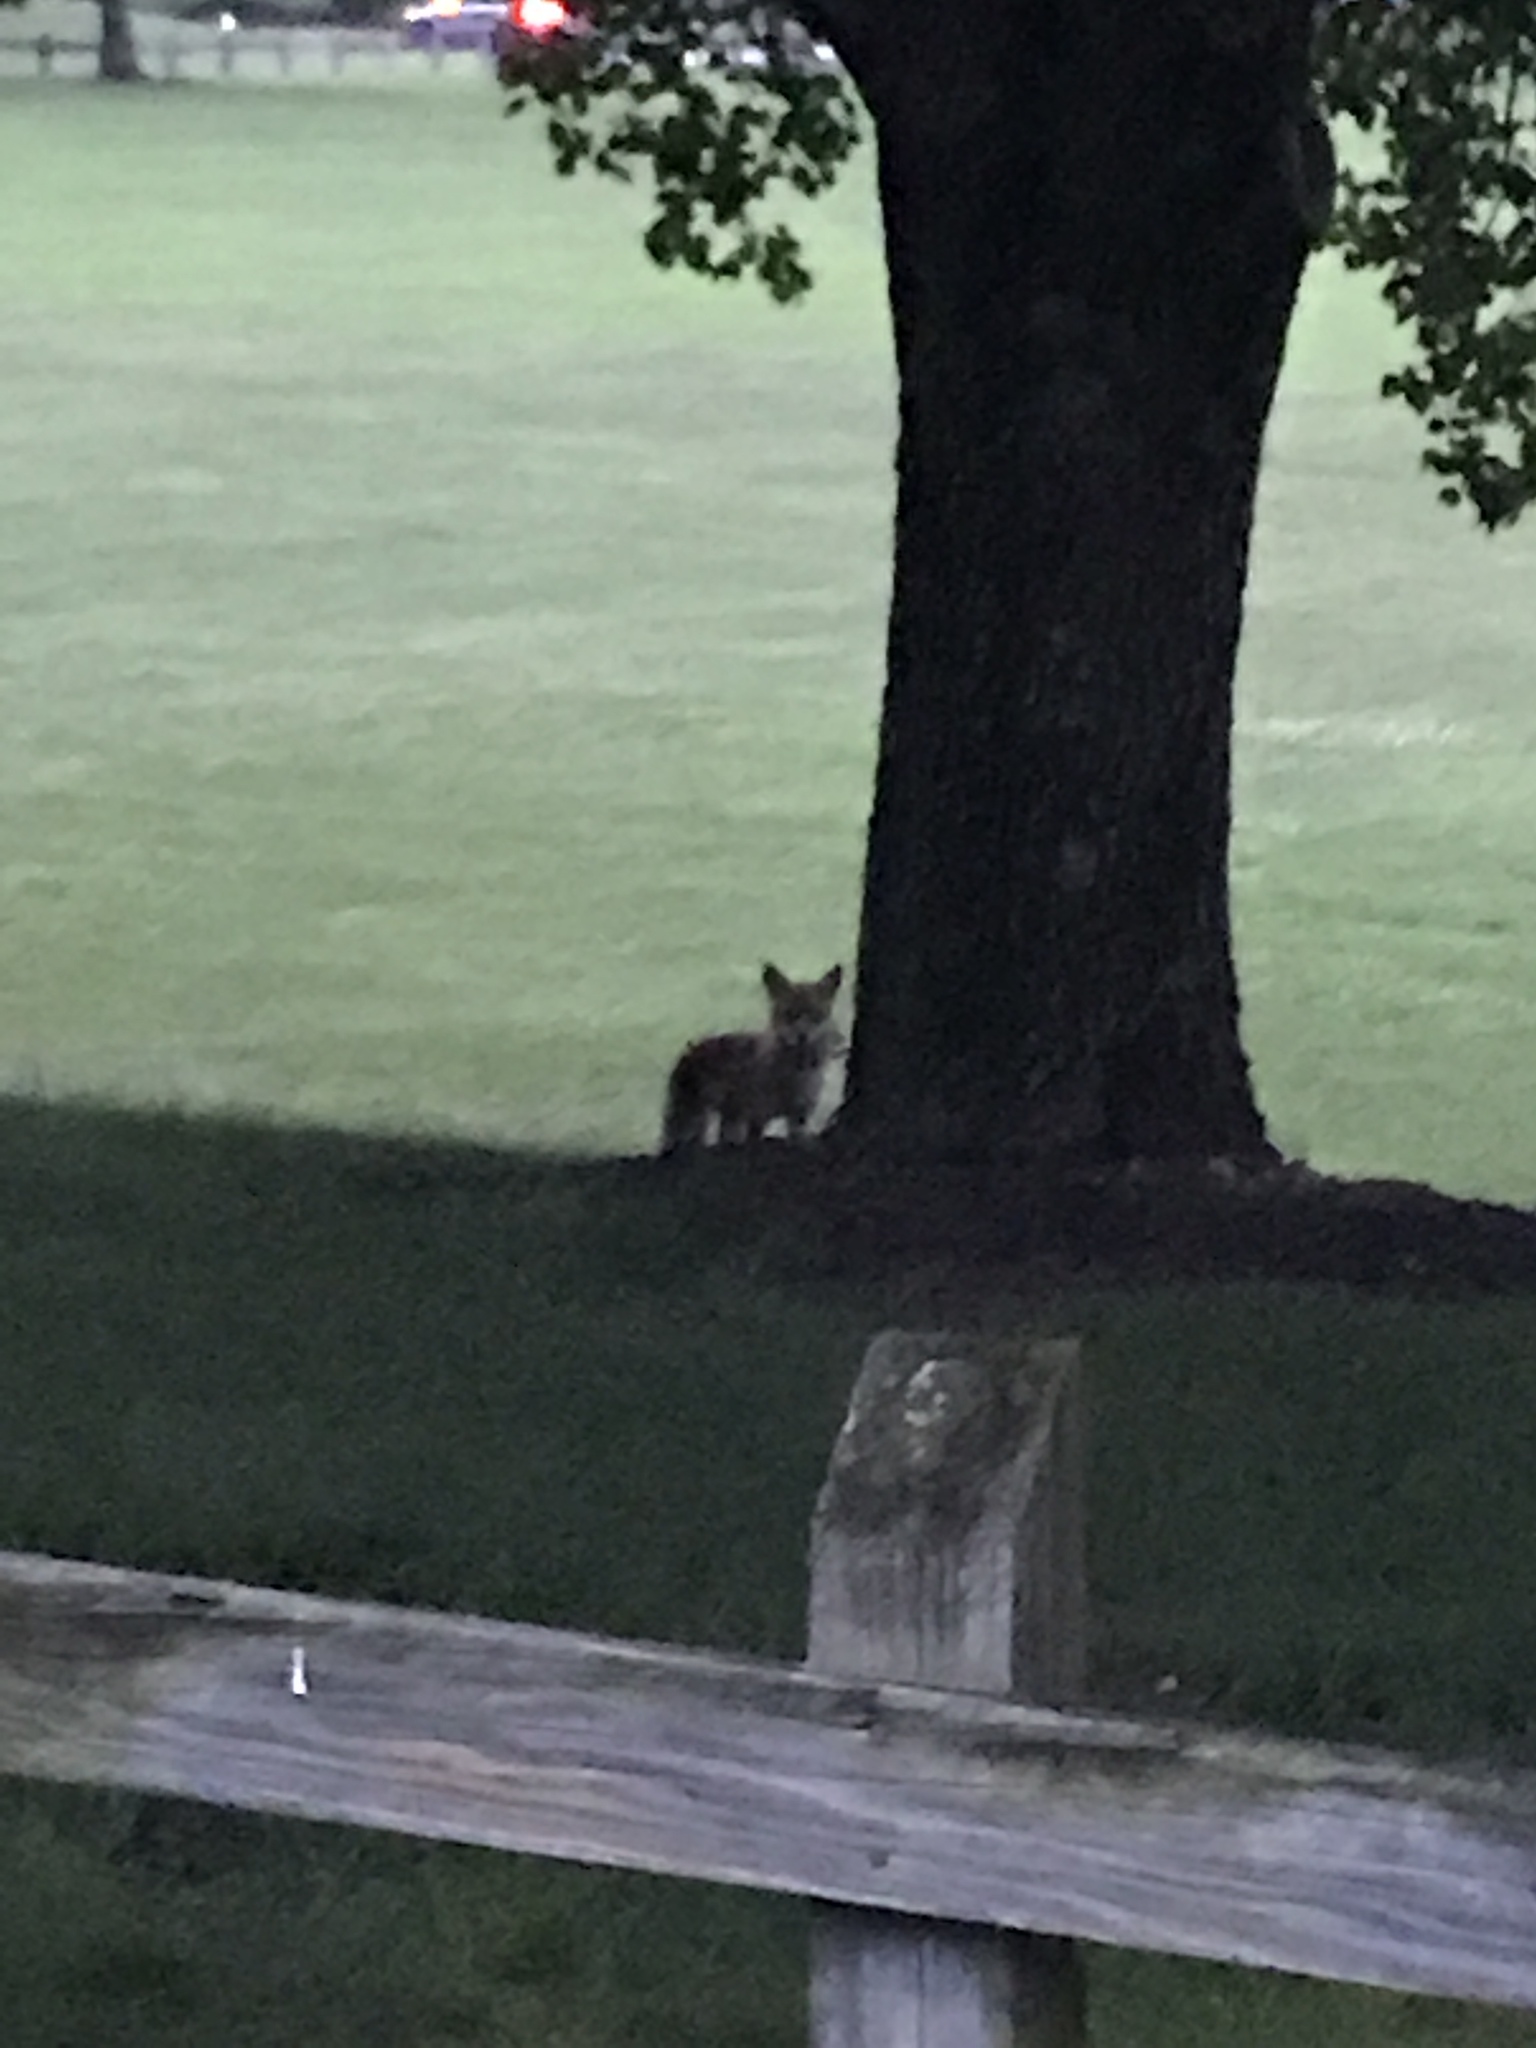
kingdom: Animalia
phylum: Chordata
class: Mammalia
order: Carnivora
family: Canidae
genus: Vulpes
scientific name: Vulpes vulpes
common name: Red fox
